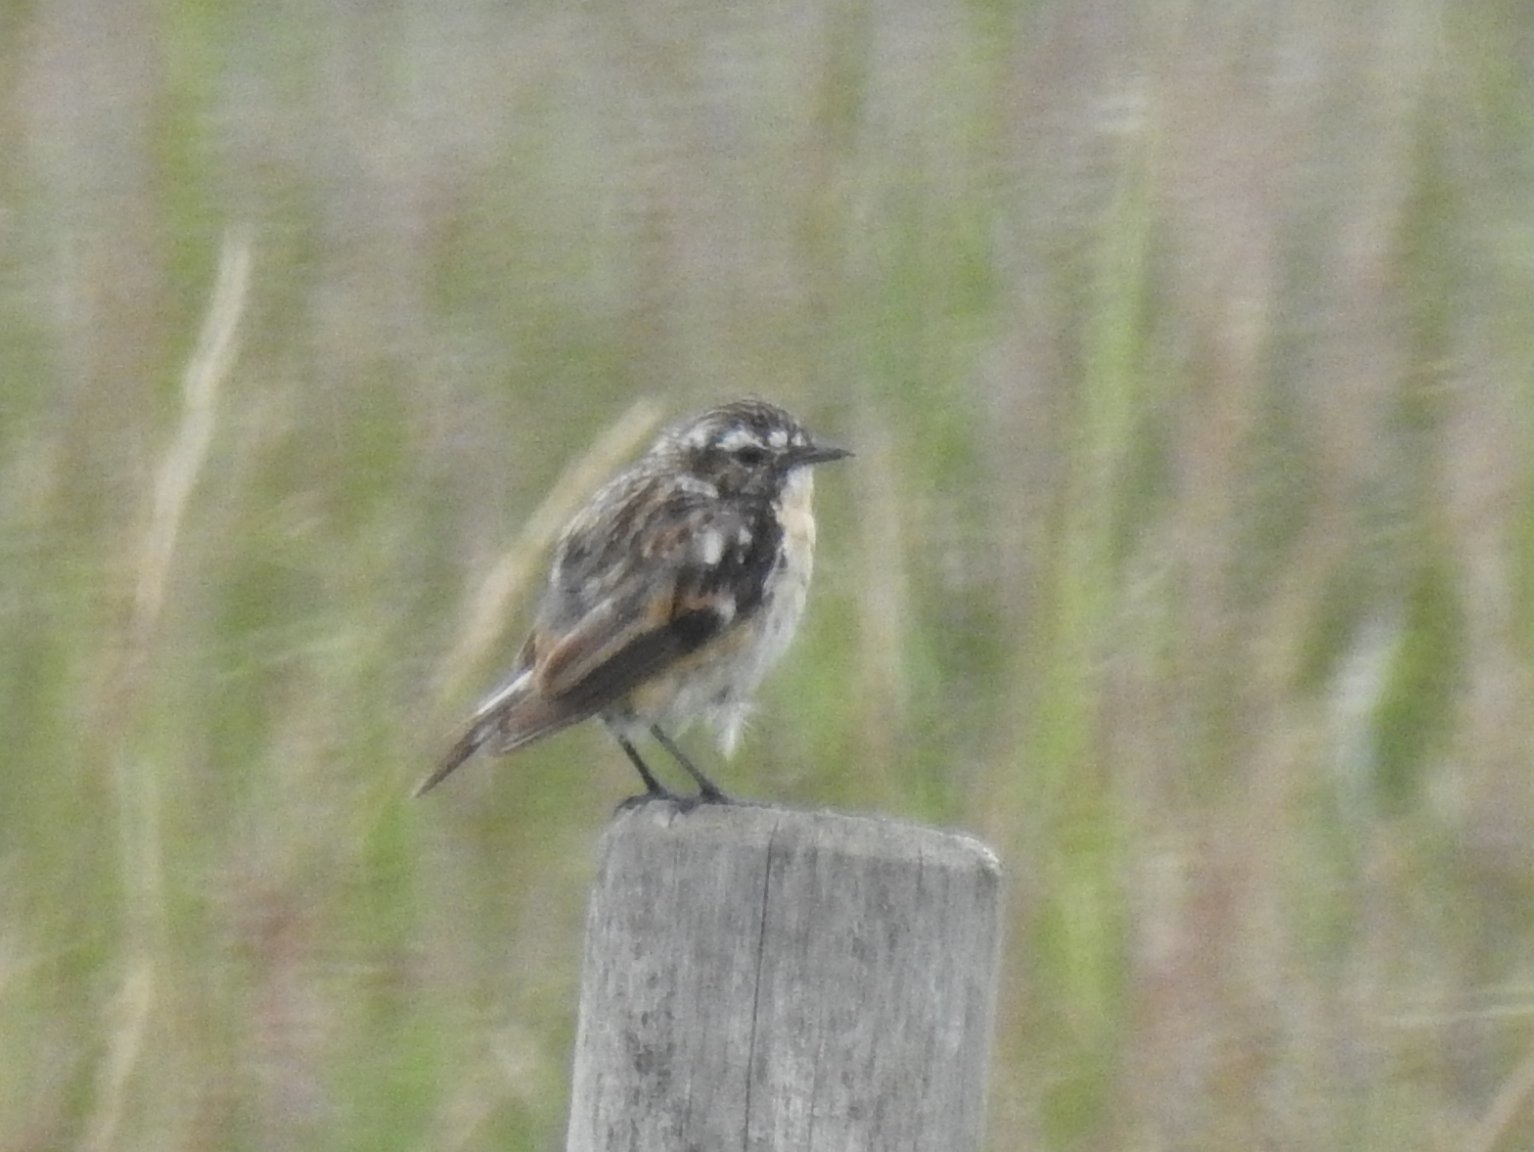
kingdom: Animalia
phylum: Chordata
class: Aves
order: Passeriformes
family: Muscicapidae
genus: Saxicola
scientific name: Saxicola rubetra
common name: Whinchat
